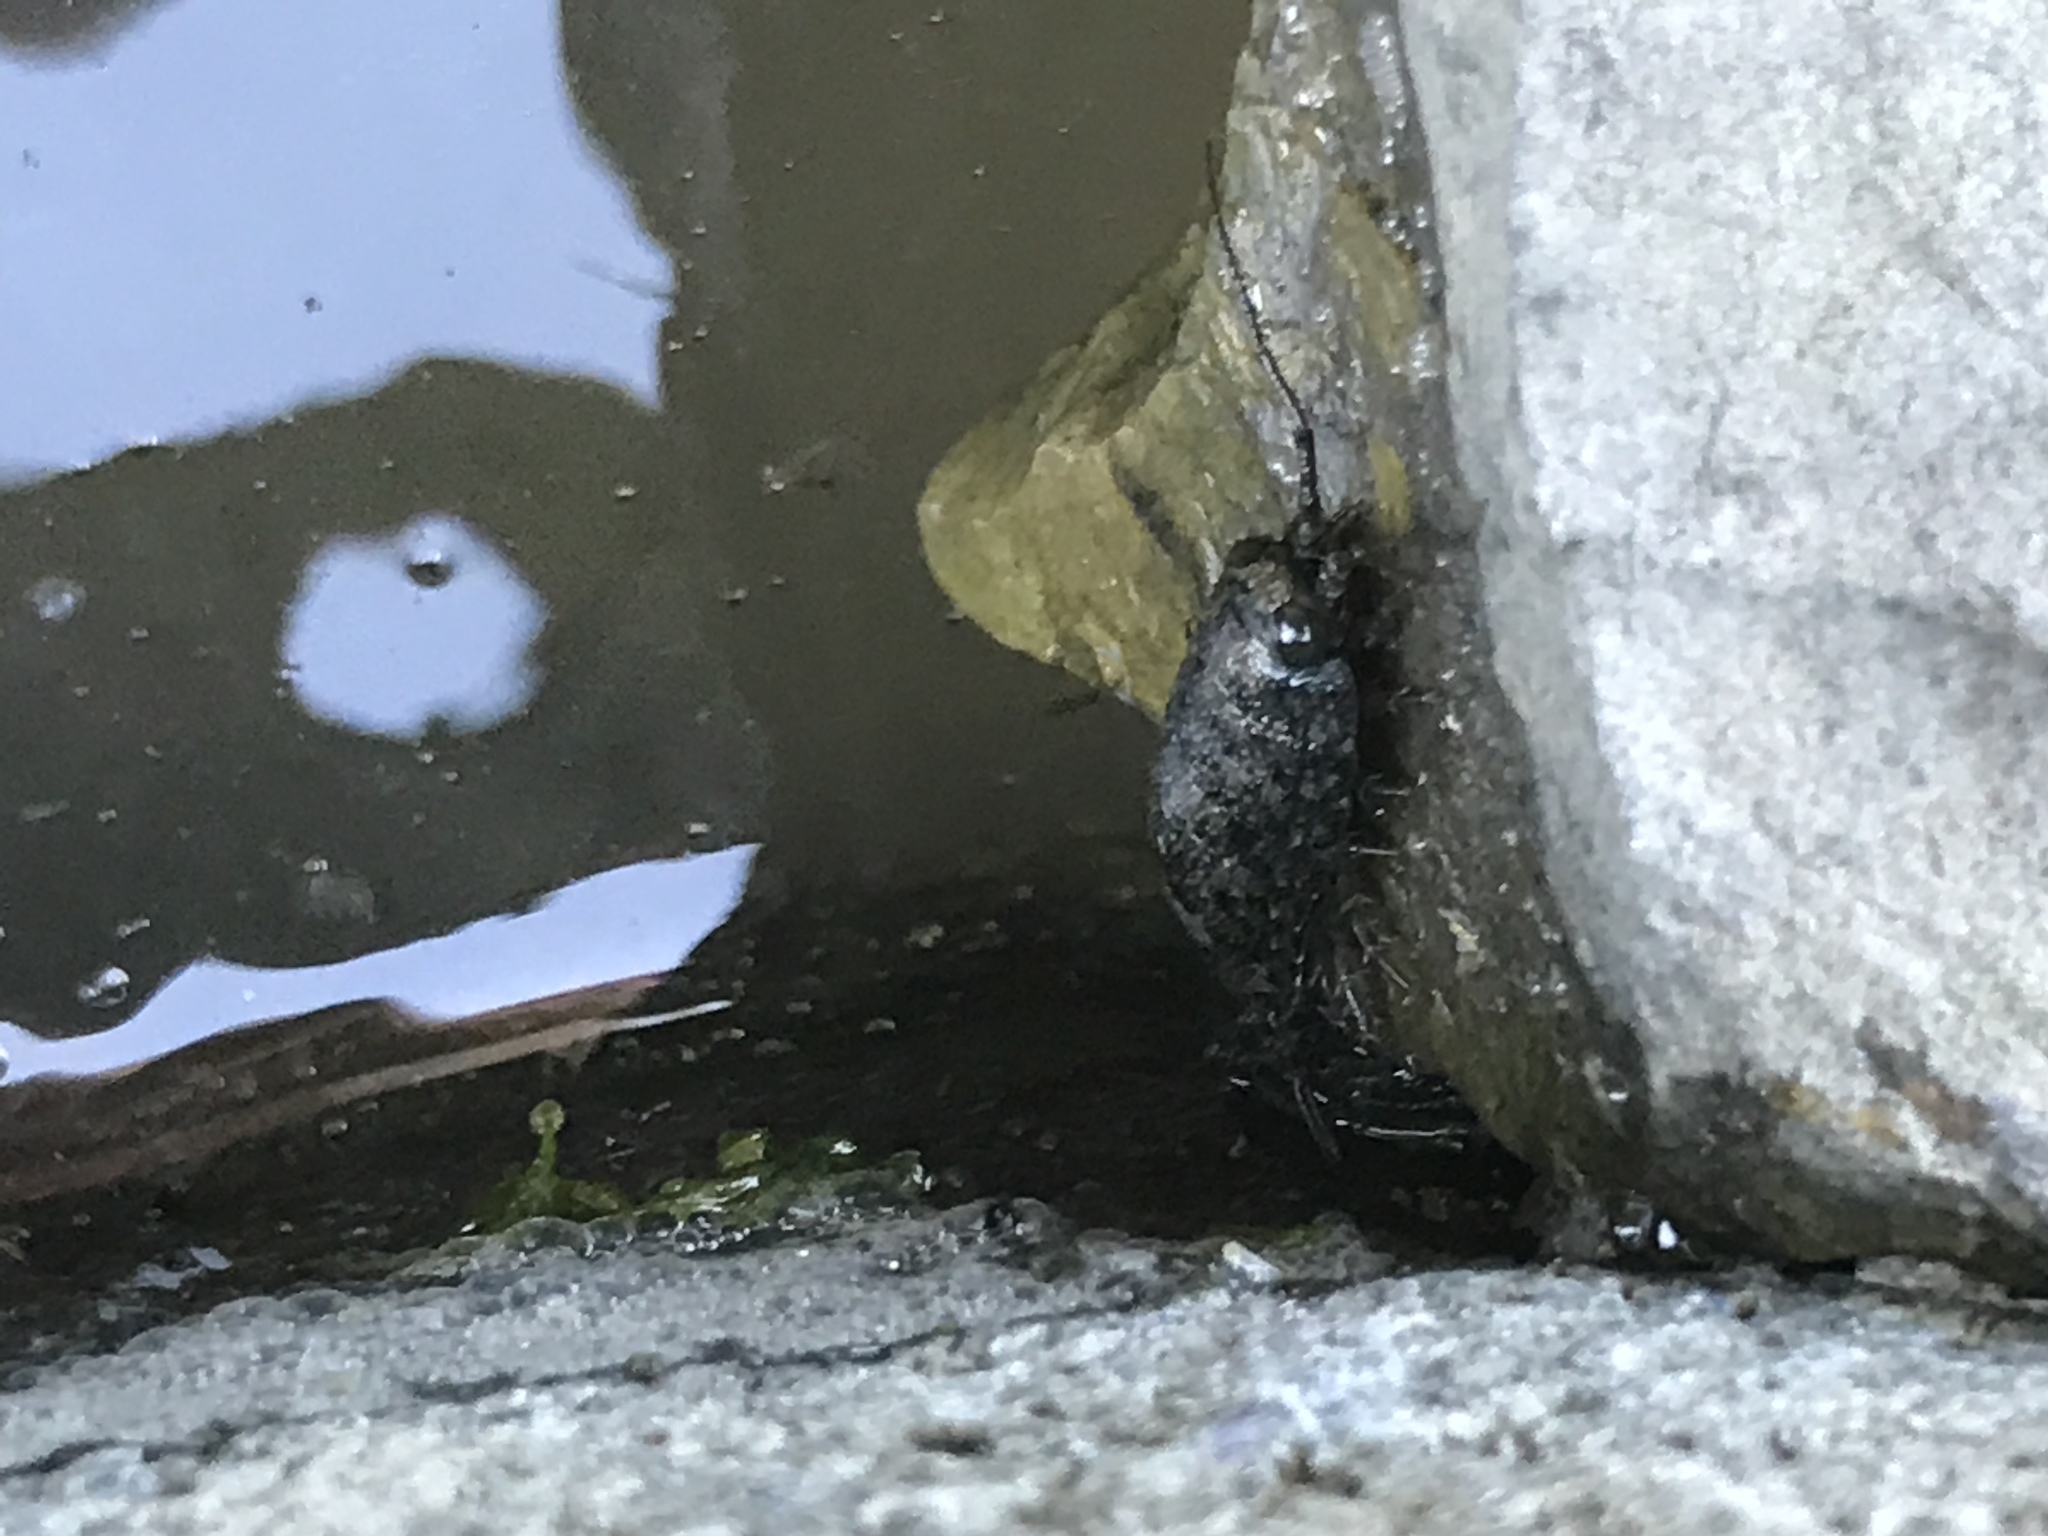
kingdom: Animalia
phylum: Arthropoda
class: Malacostraca
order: Isopoda
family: Ligiidae
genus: Ligia
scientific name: Ligia occidentalis
